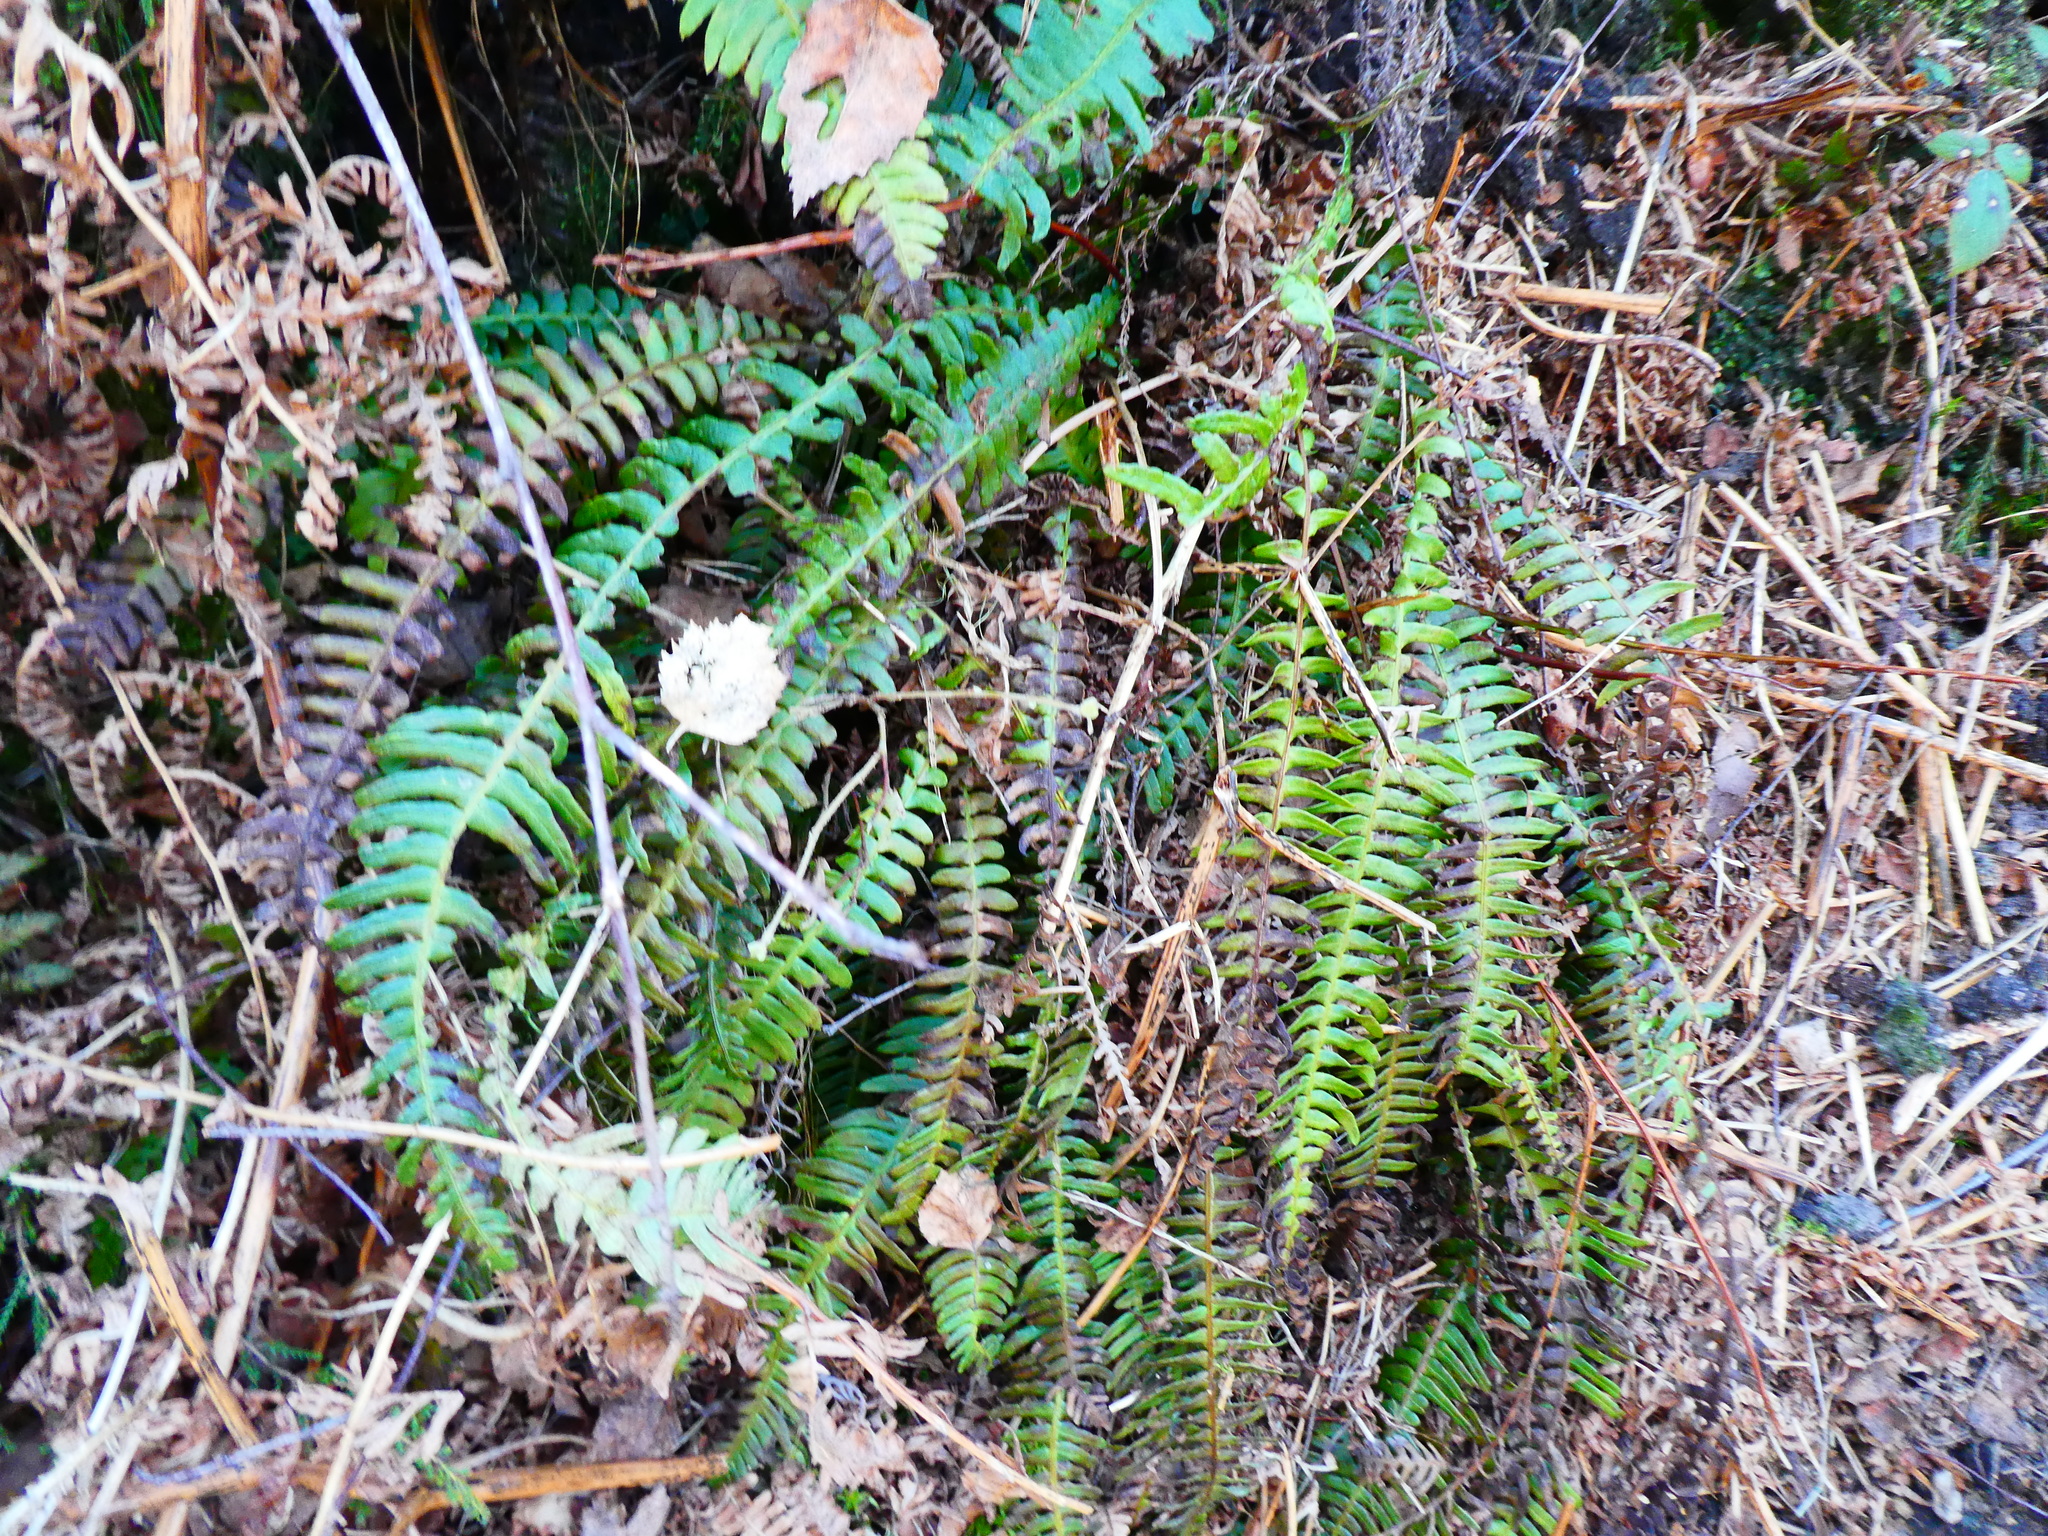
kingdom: Plantae
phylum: Tracheophyta
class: Polypodiopsida
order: Polypodiales
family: Blechnaceae
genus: Struthiopteris
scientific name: Struthiopteris spicant
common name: Deer fern
